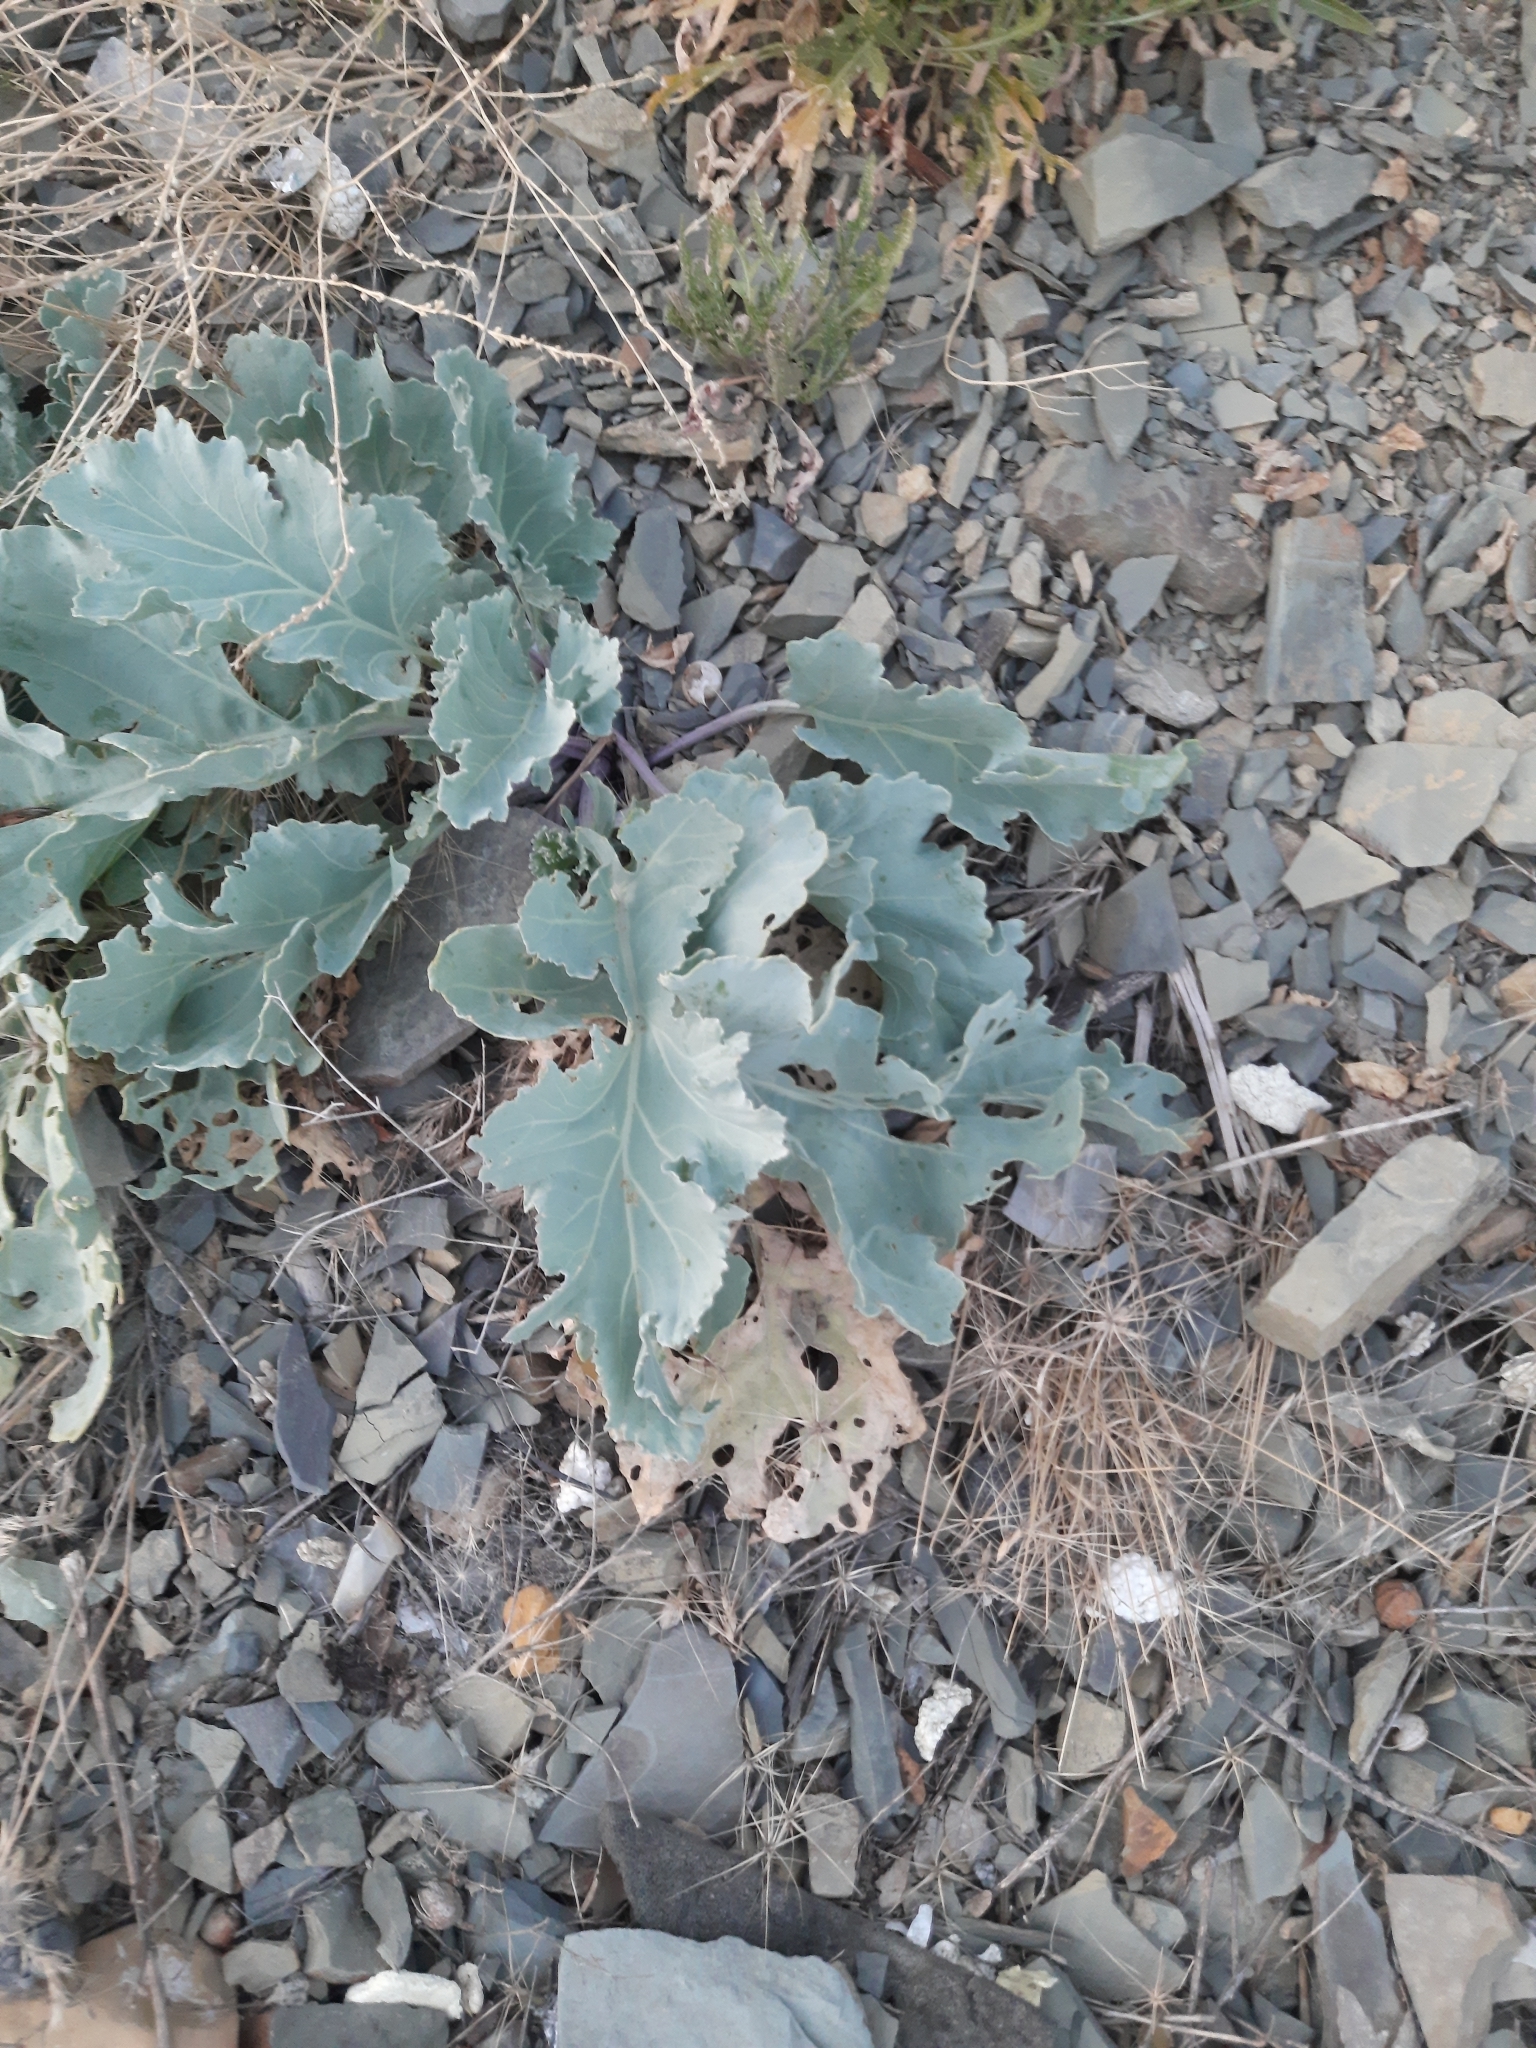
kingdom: Plantae
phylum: Tracheophyta
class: Magnoliopsida
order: Brassicales
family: Brassicaceae
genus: Crambe
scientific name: Crambe maritima
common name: Sea-kale
